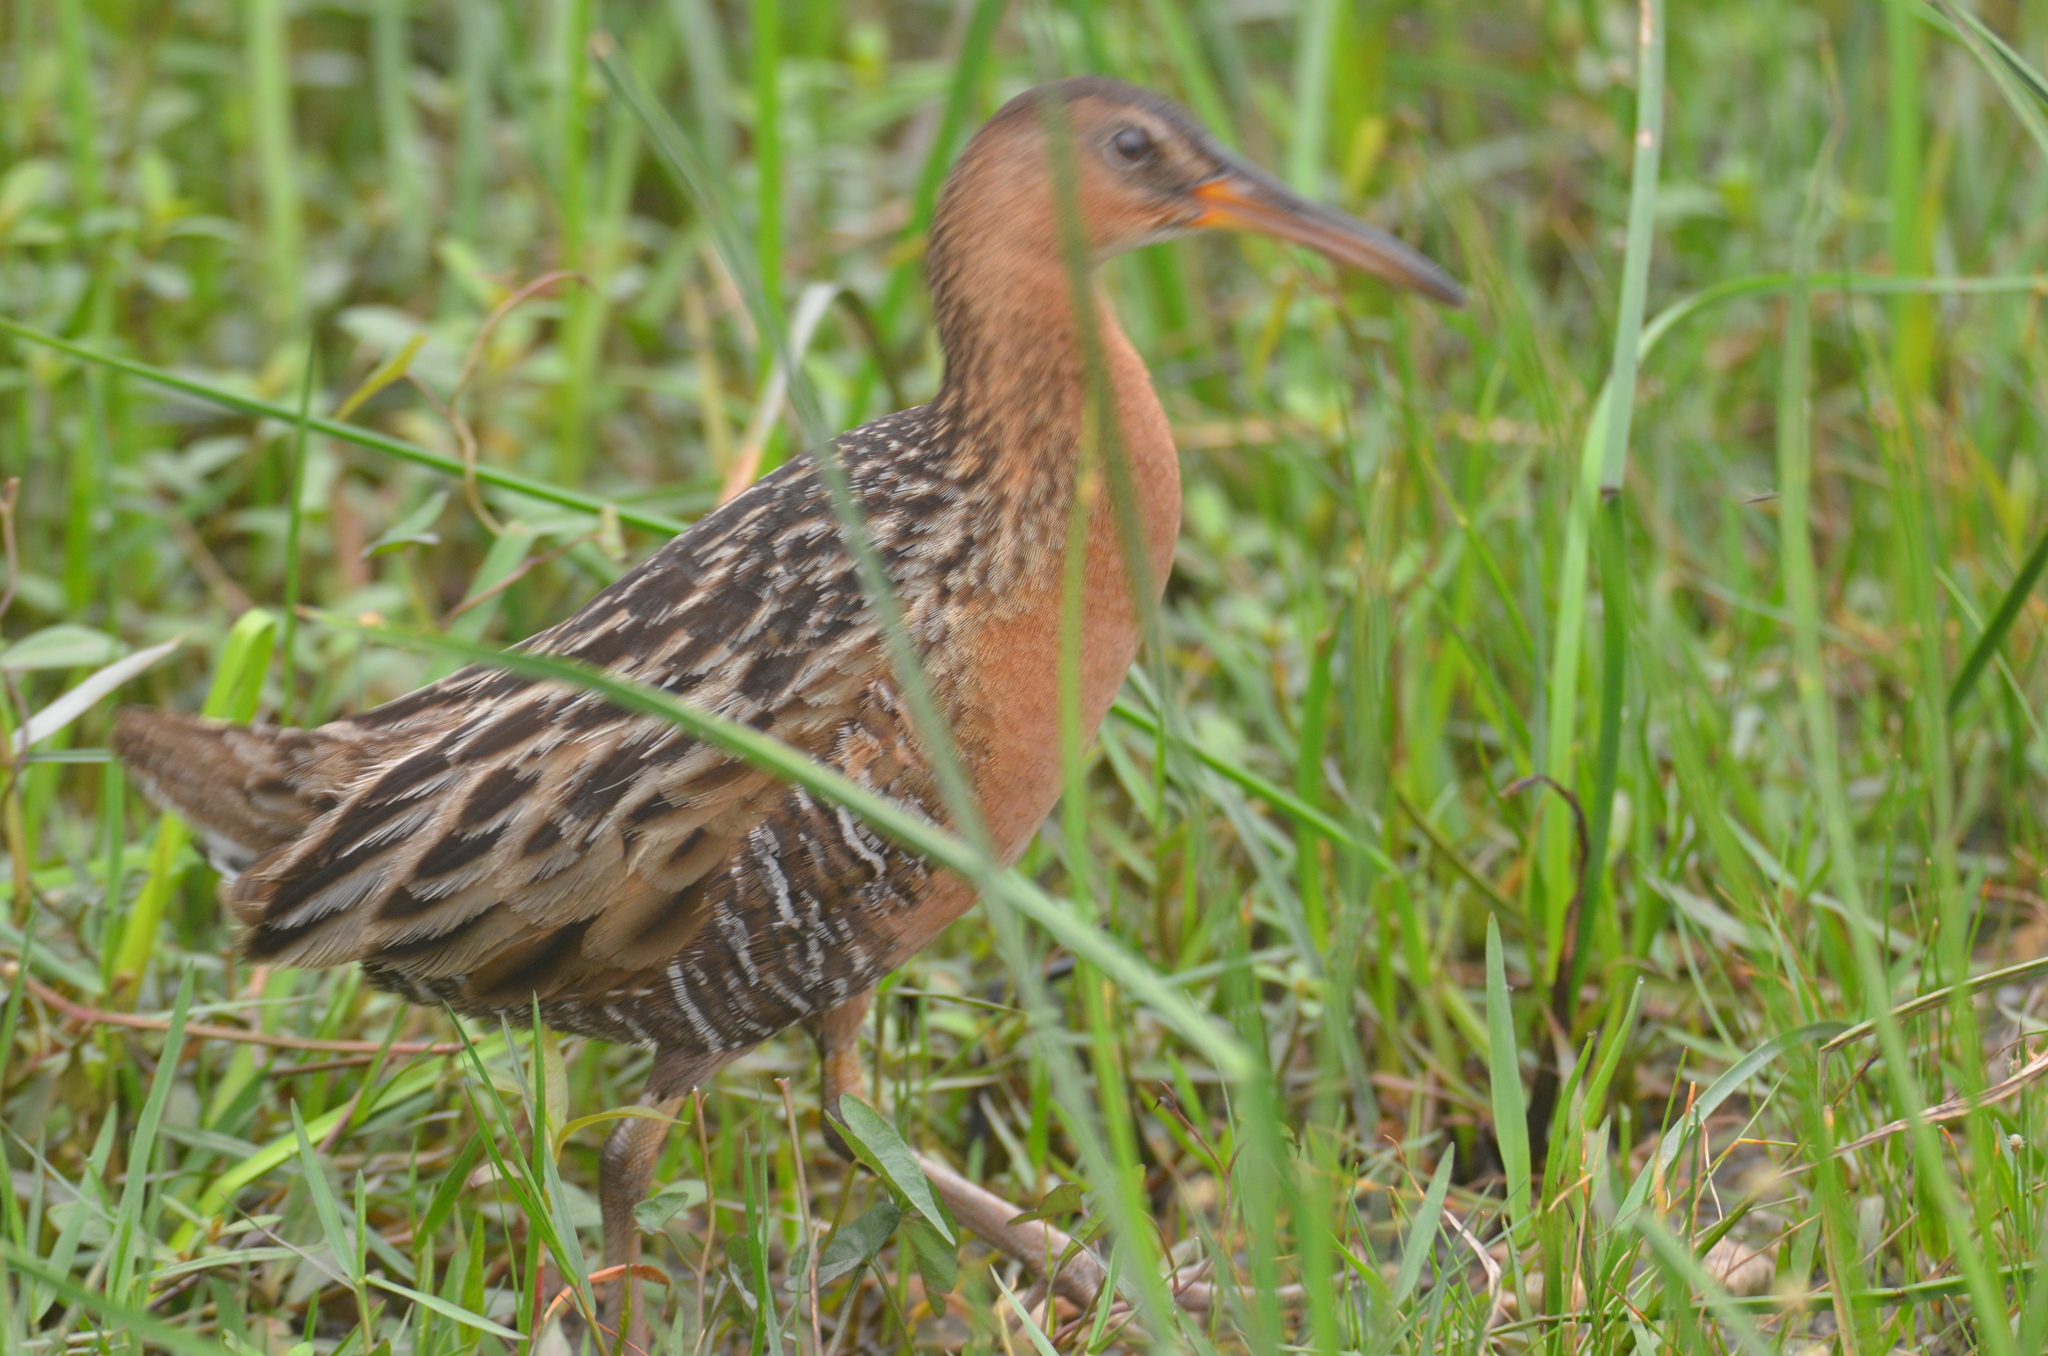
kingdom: Animalia
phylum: Chordata
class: Aves
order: Gruiformes
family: Rallidae
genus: Rallus
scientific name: Rallus elegans
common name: King rail
